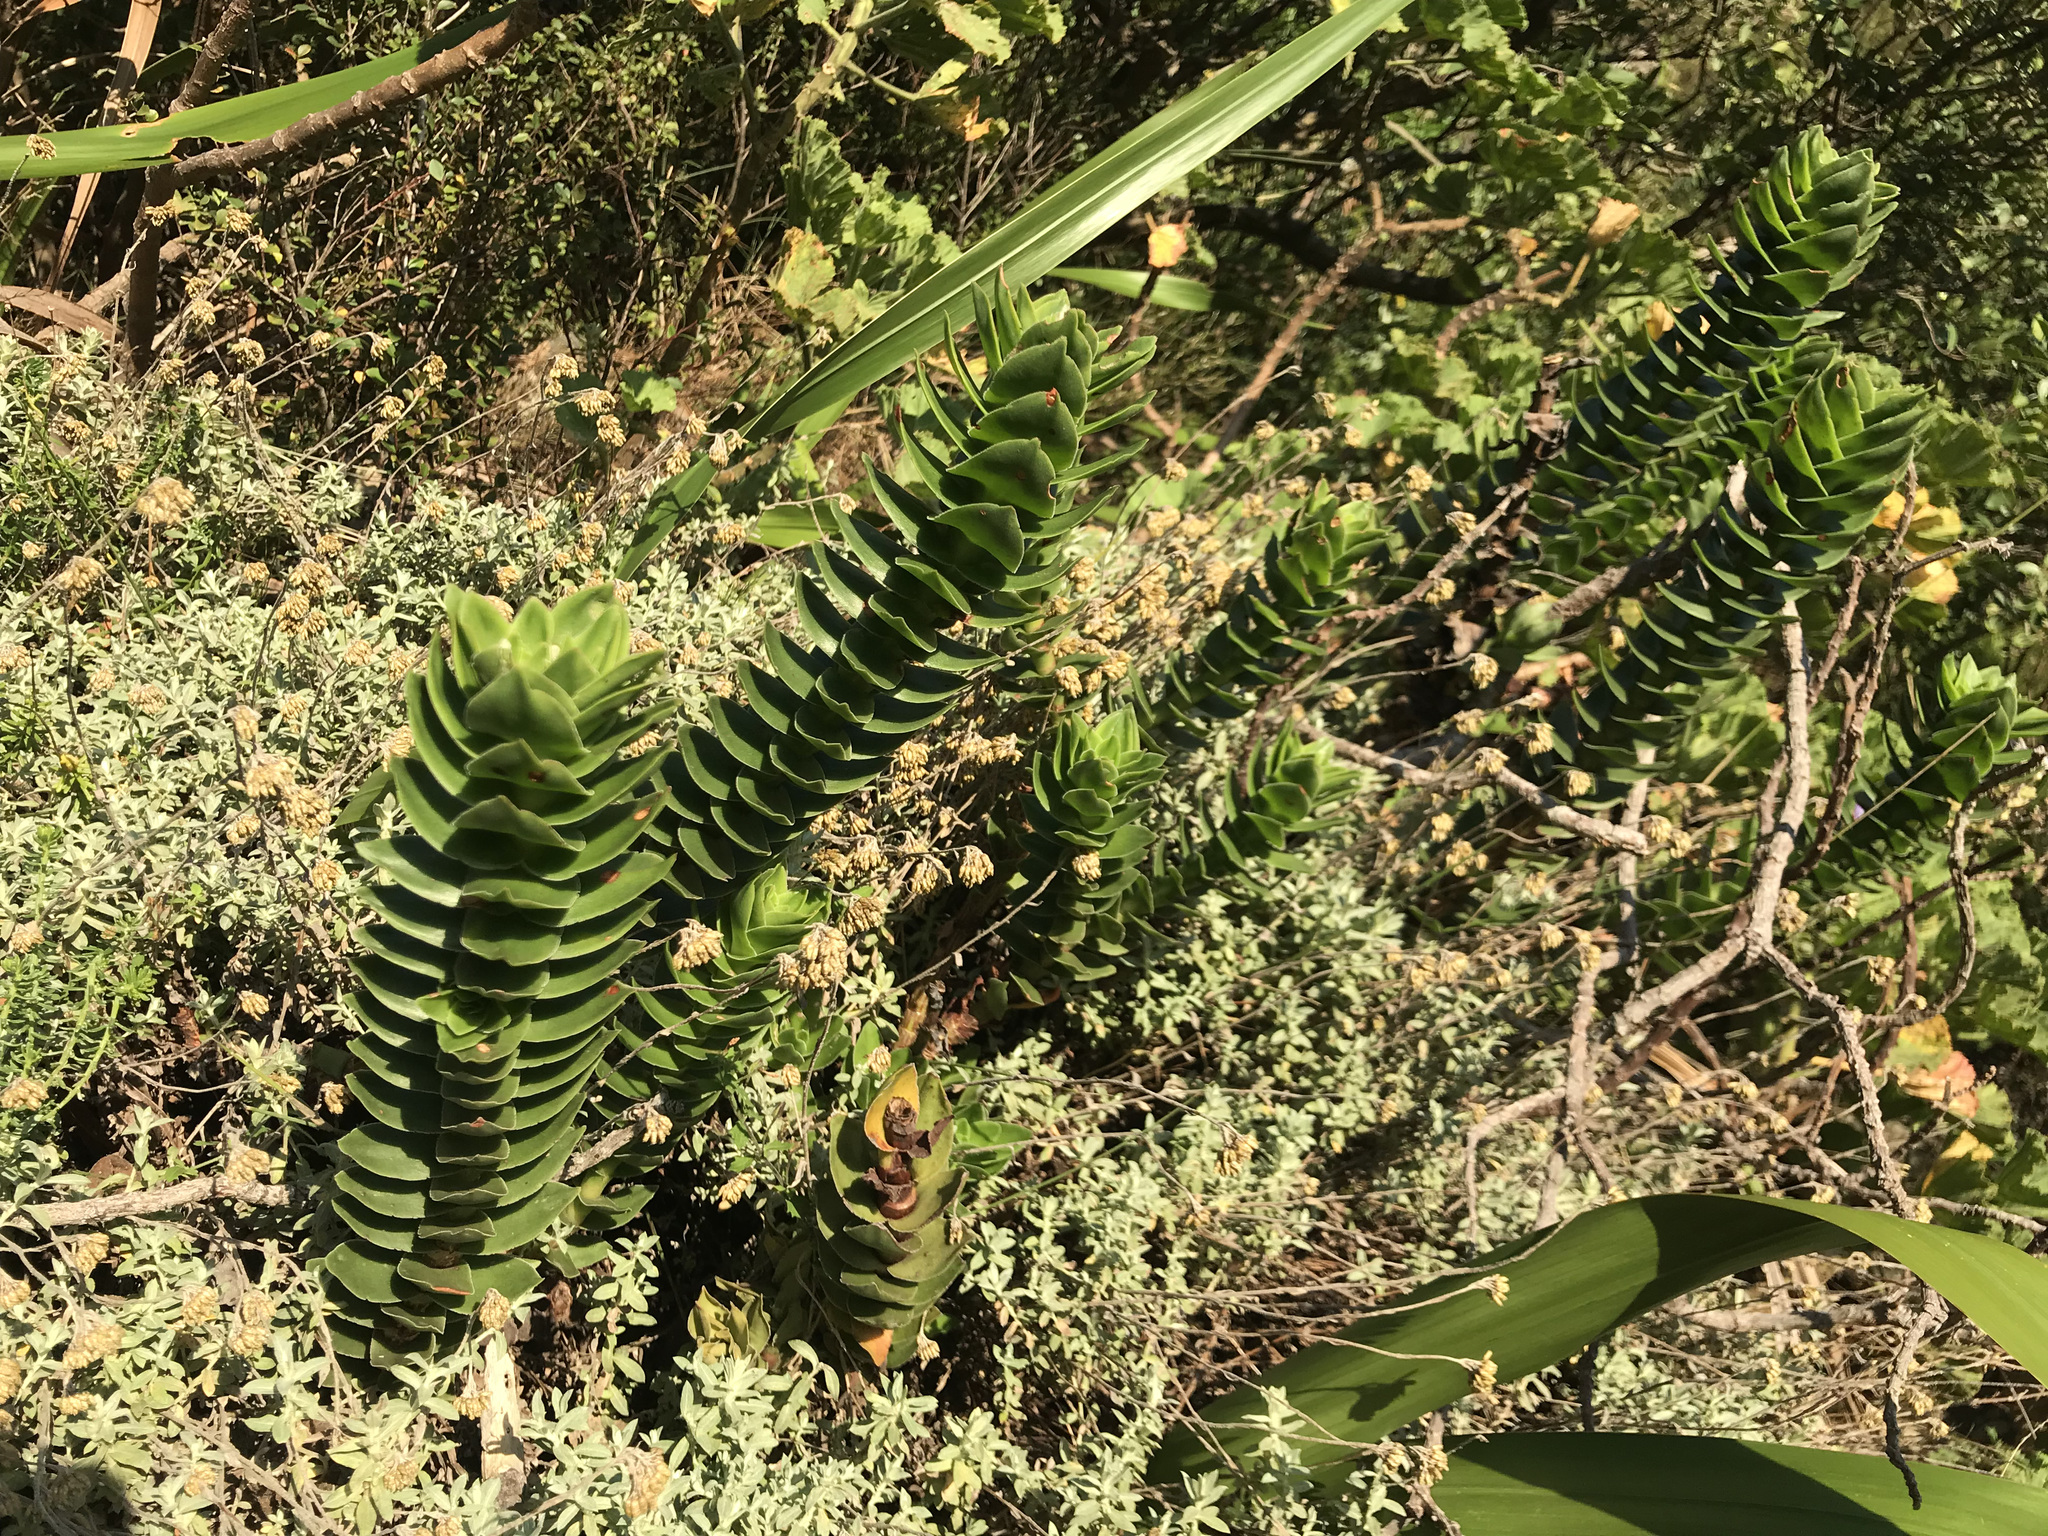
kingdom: Plantae
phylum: Tracheophyta
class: Magnoliopsida
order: Saxifragales
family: Crassulaceae
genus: Crassula
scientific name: Crassula coccinea
